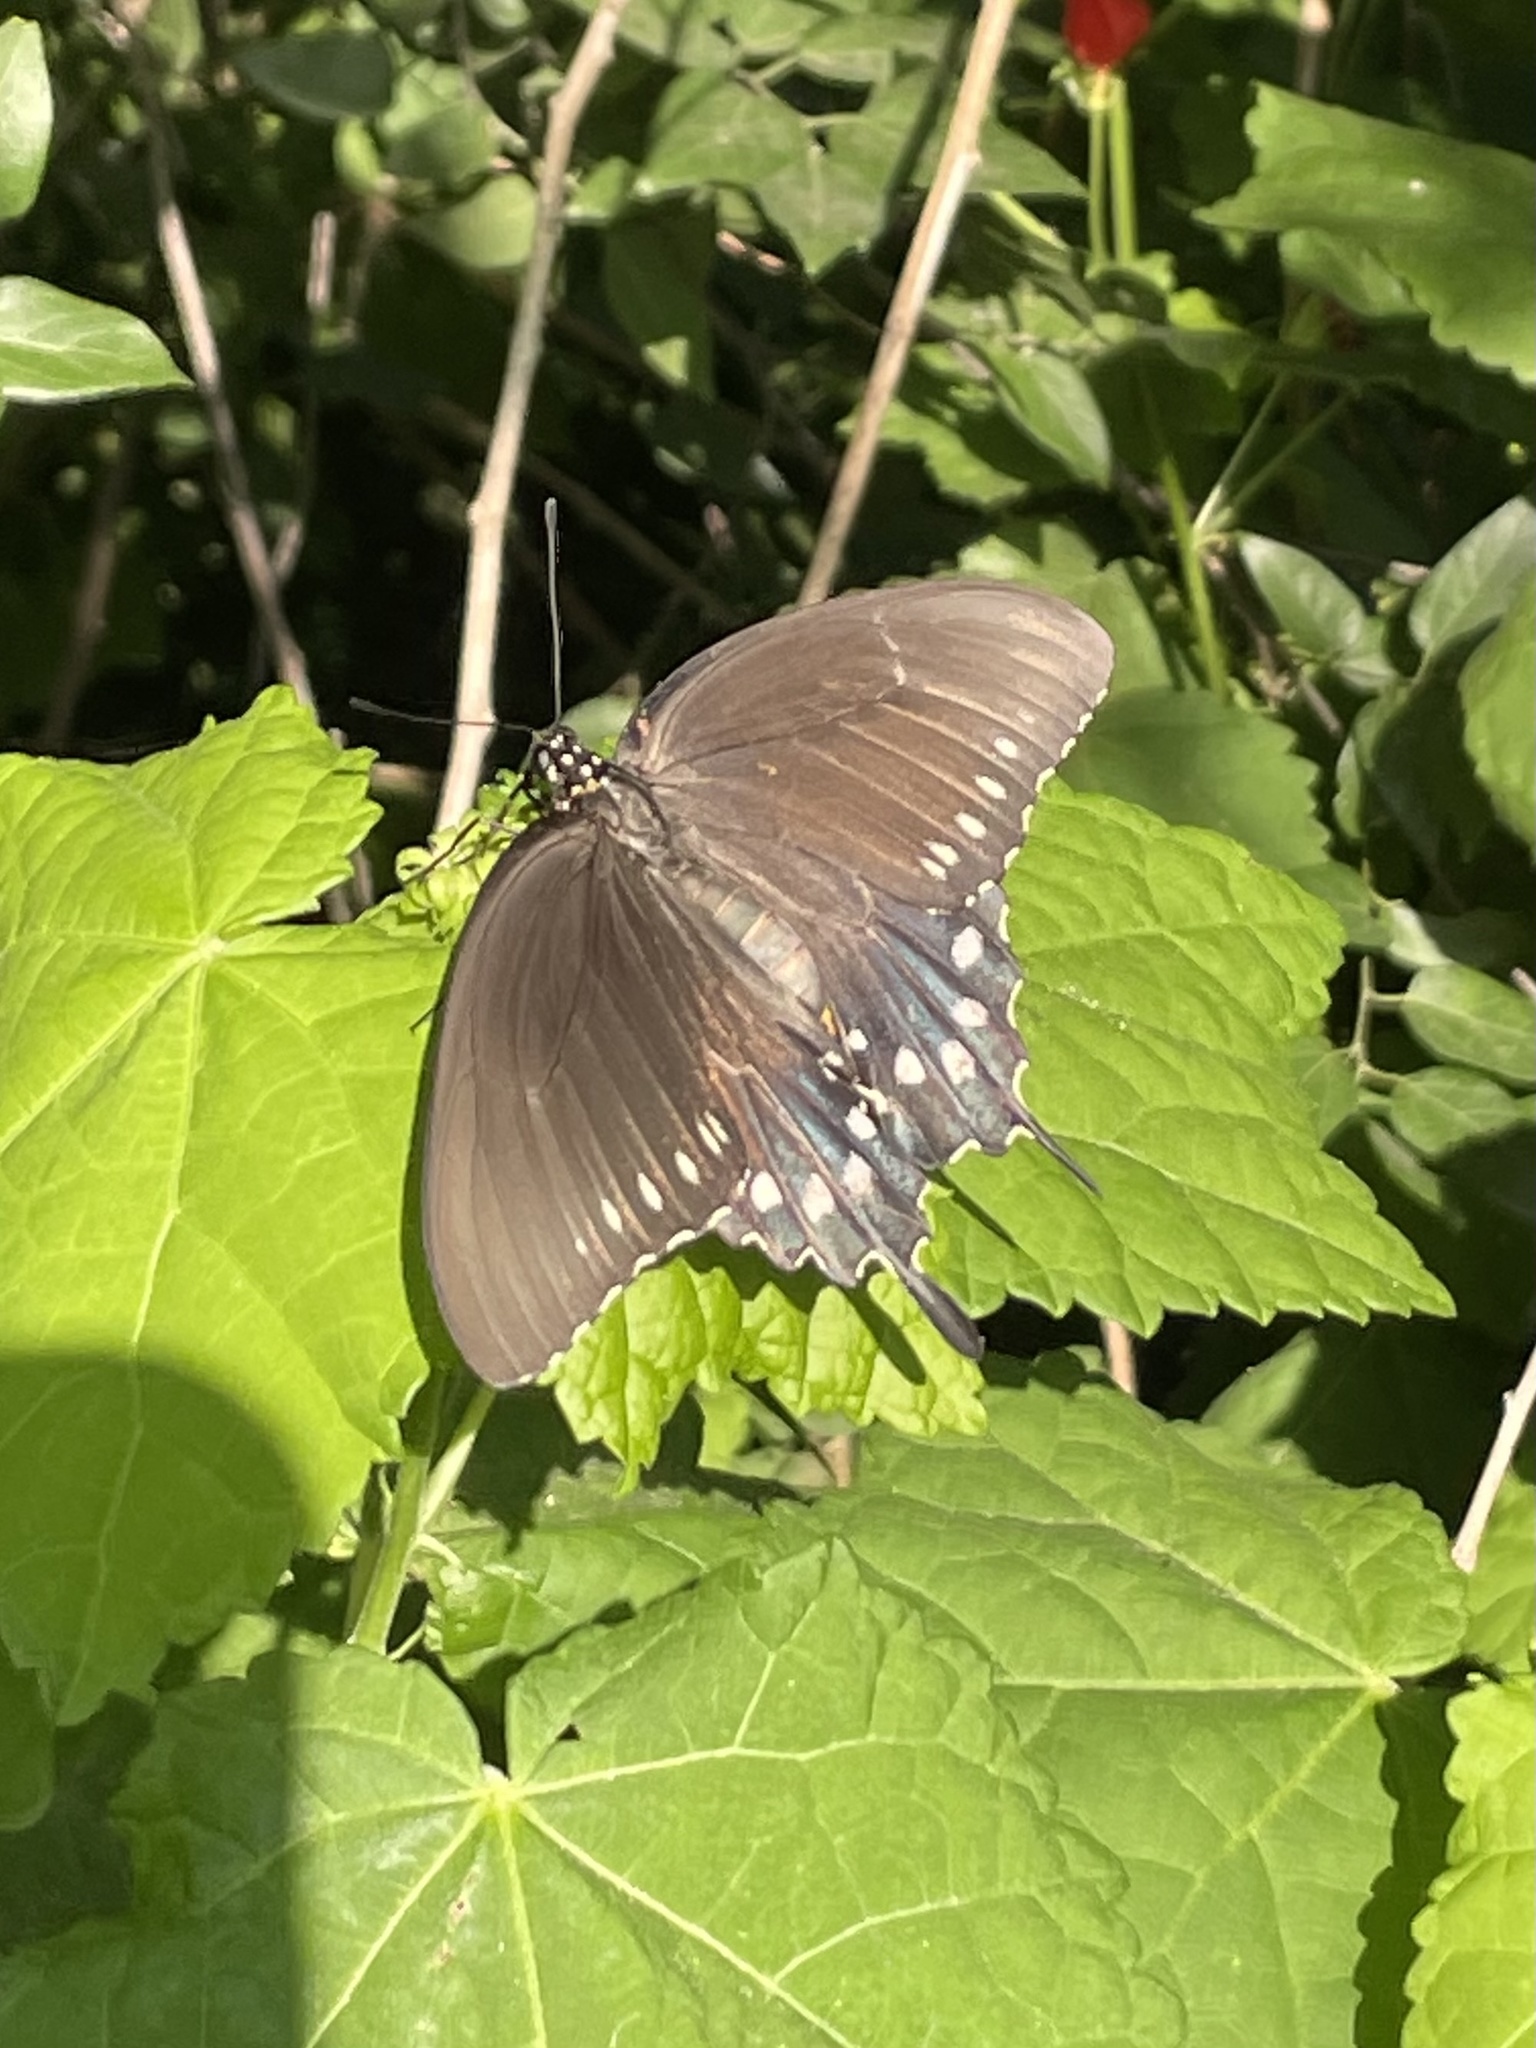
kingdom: Animalia
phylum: Arthropoda
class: Insecta
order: Lepidoptera
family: Papilionidae
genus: Battus
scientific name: Battus philenor
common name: Pipevine swallowtail
